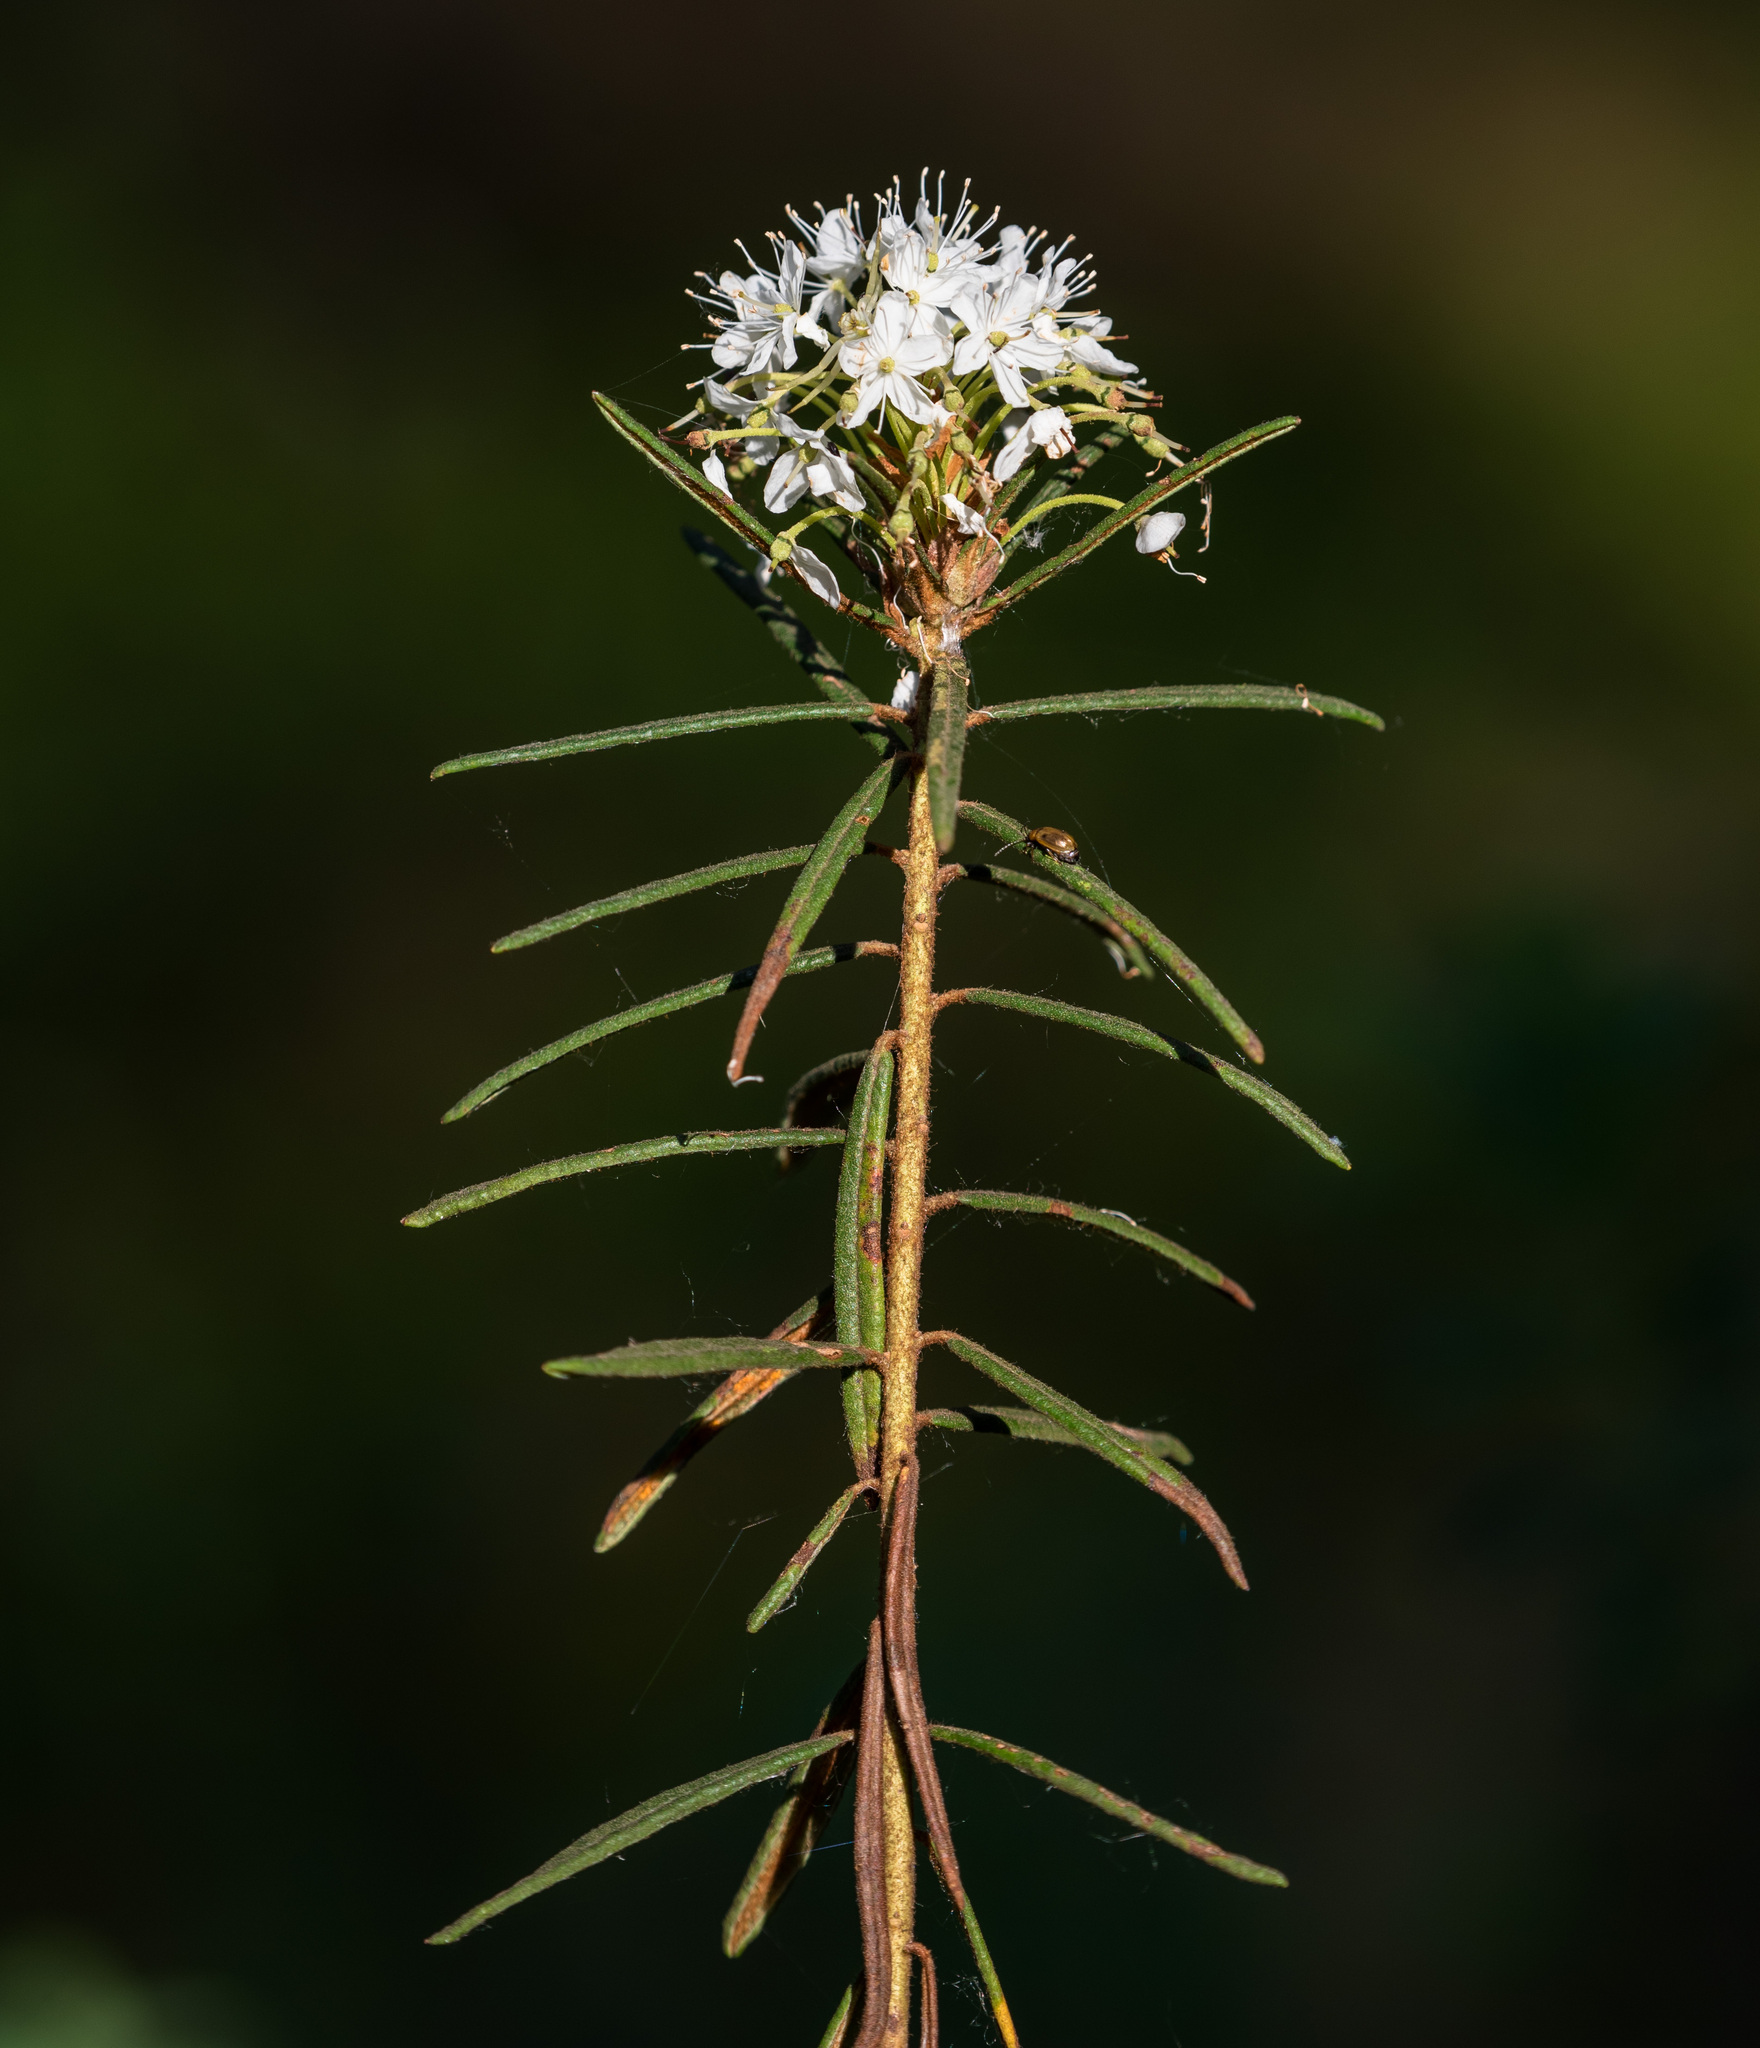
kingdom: Plantae
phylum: Tracheophyta
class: Magnoliopsida
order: Ericales
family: Ericaceae
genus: Rhododendron
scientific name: Rhododendron tomentosum
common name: Marsh labrador tea
